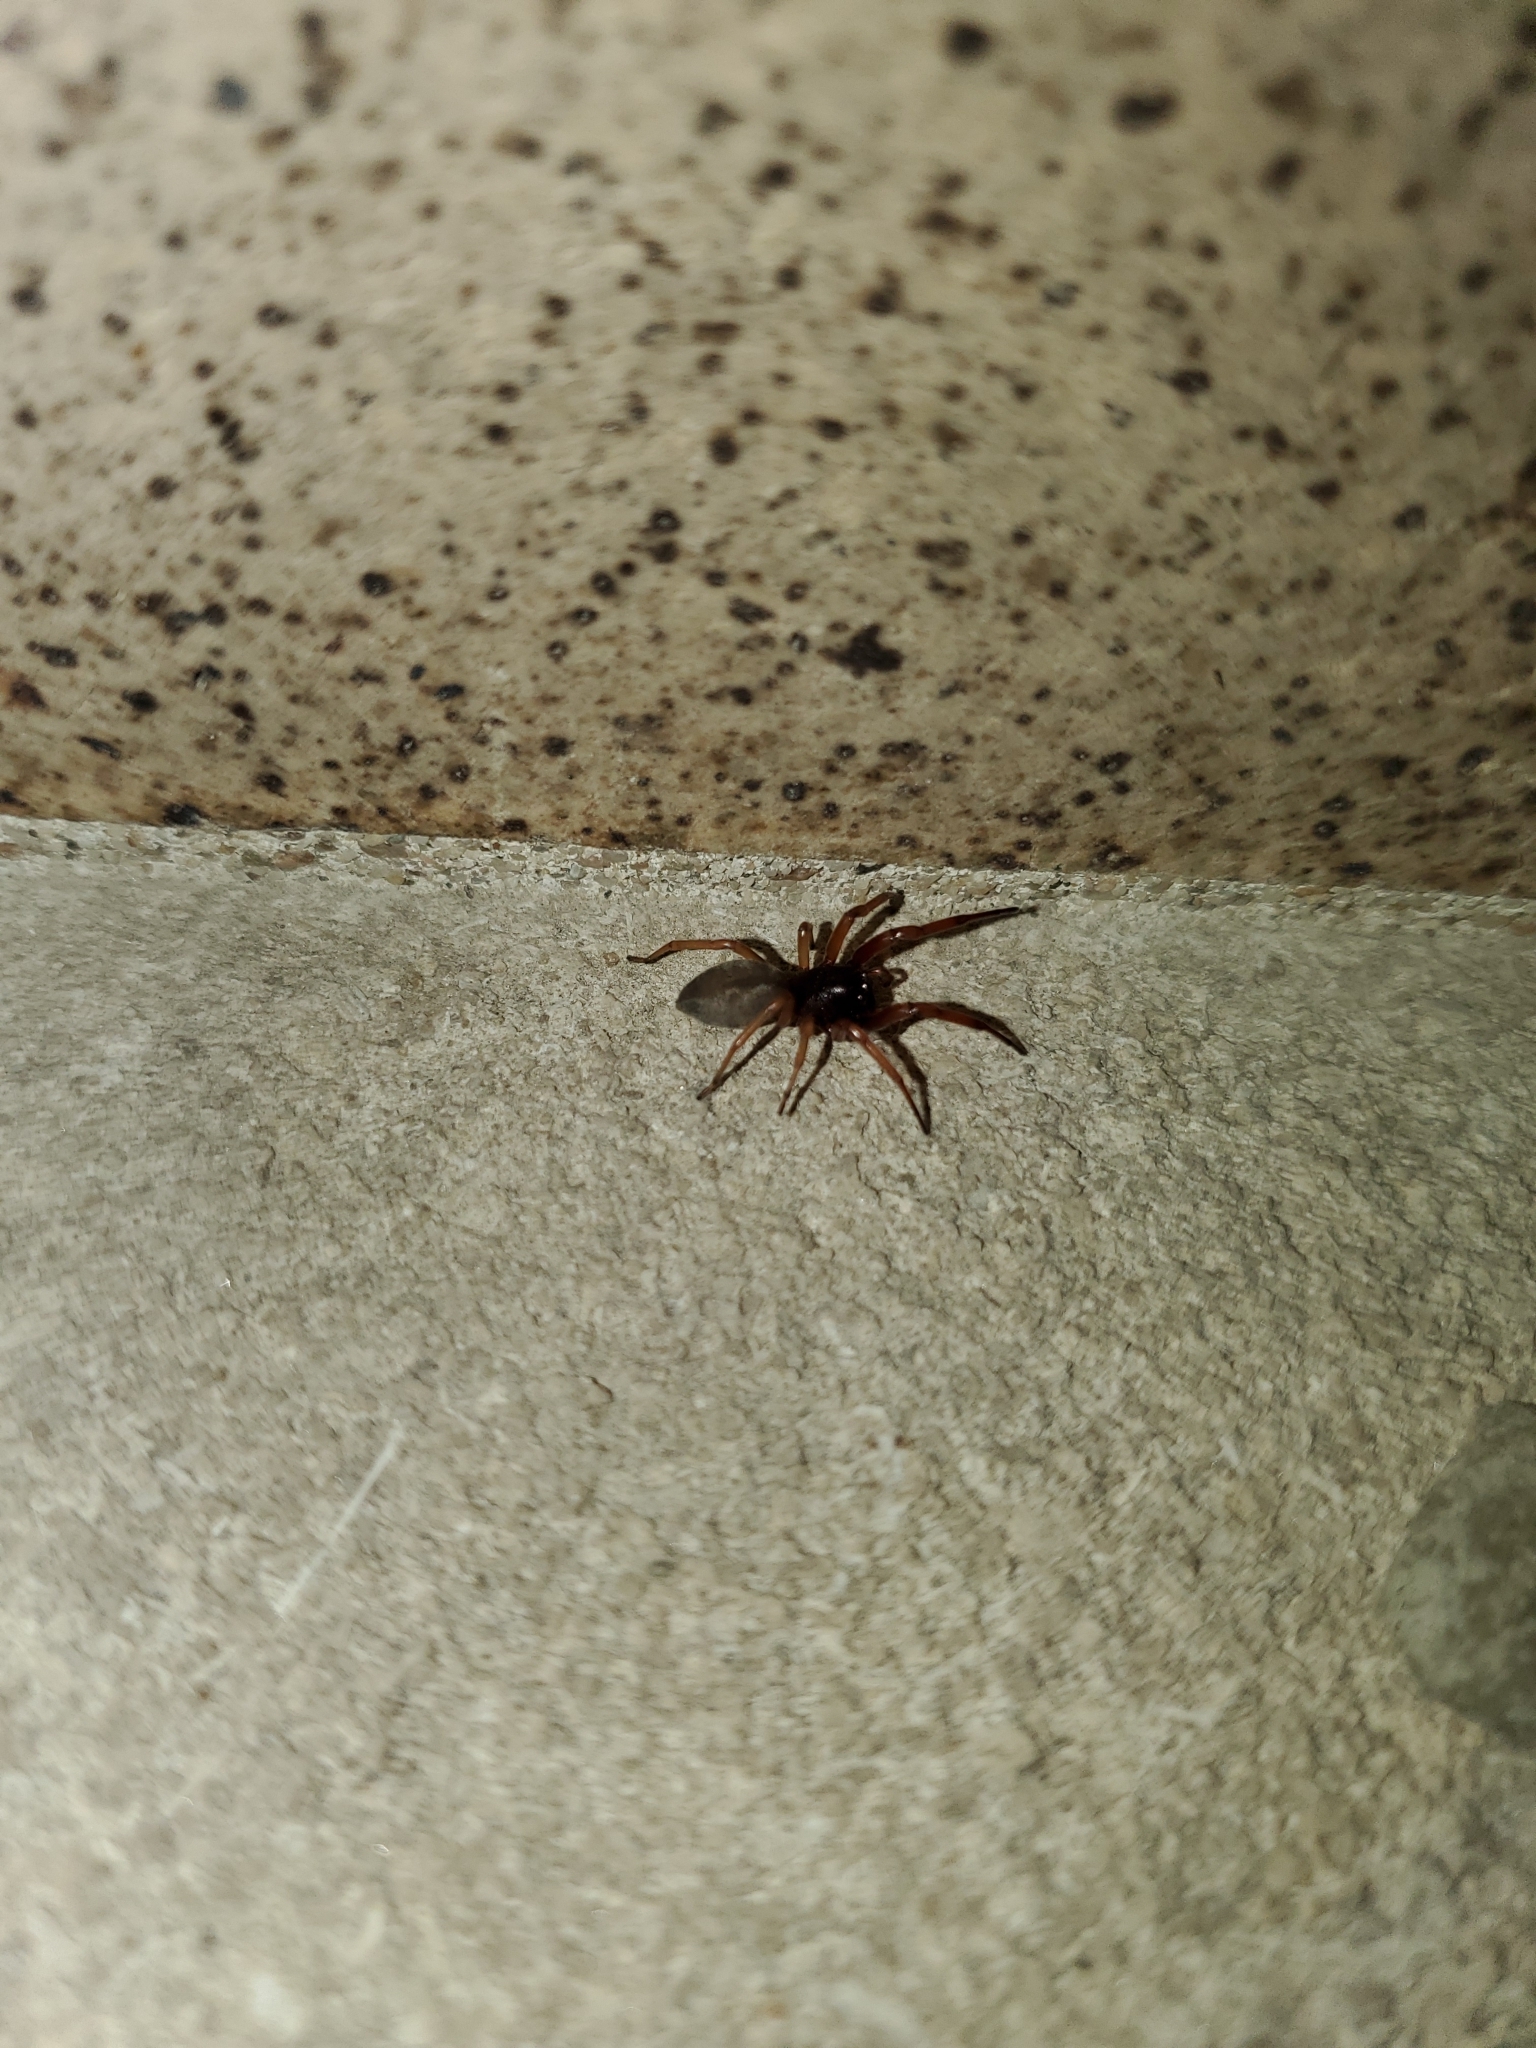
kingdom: Animalia
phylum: Arthropoda
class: Arachnida
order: Araneae
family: Trachelidae
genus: Trachelas
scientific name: Trachelas tranquillus
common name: Broad-faced sac spider
